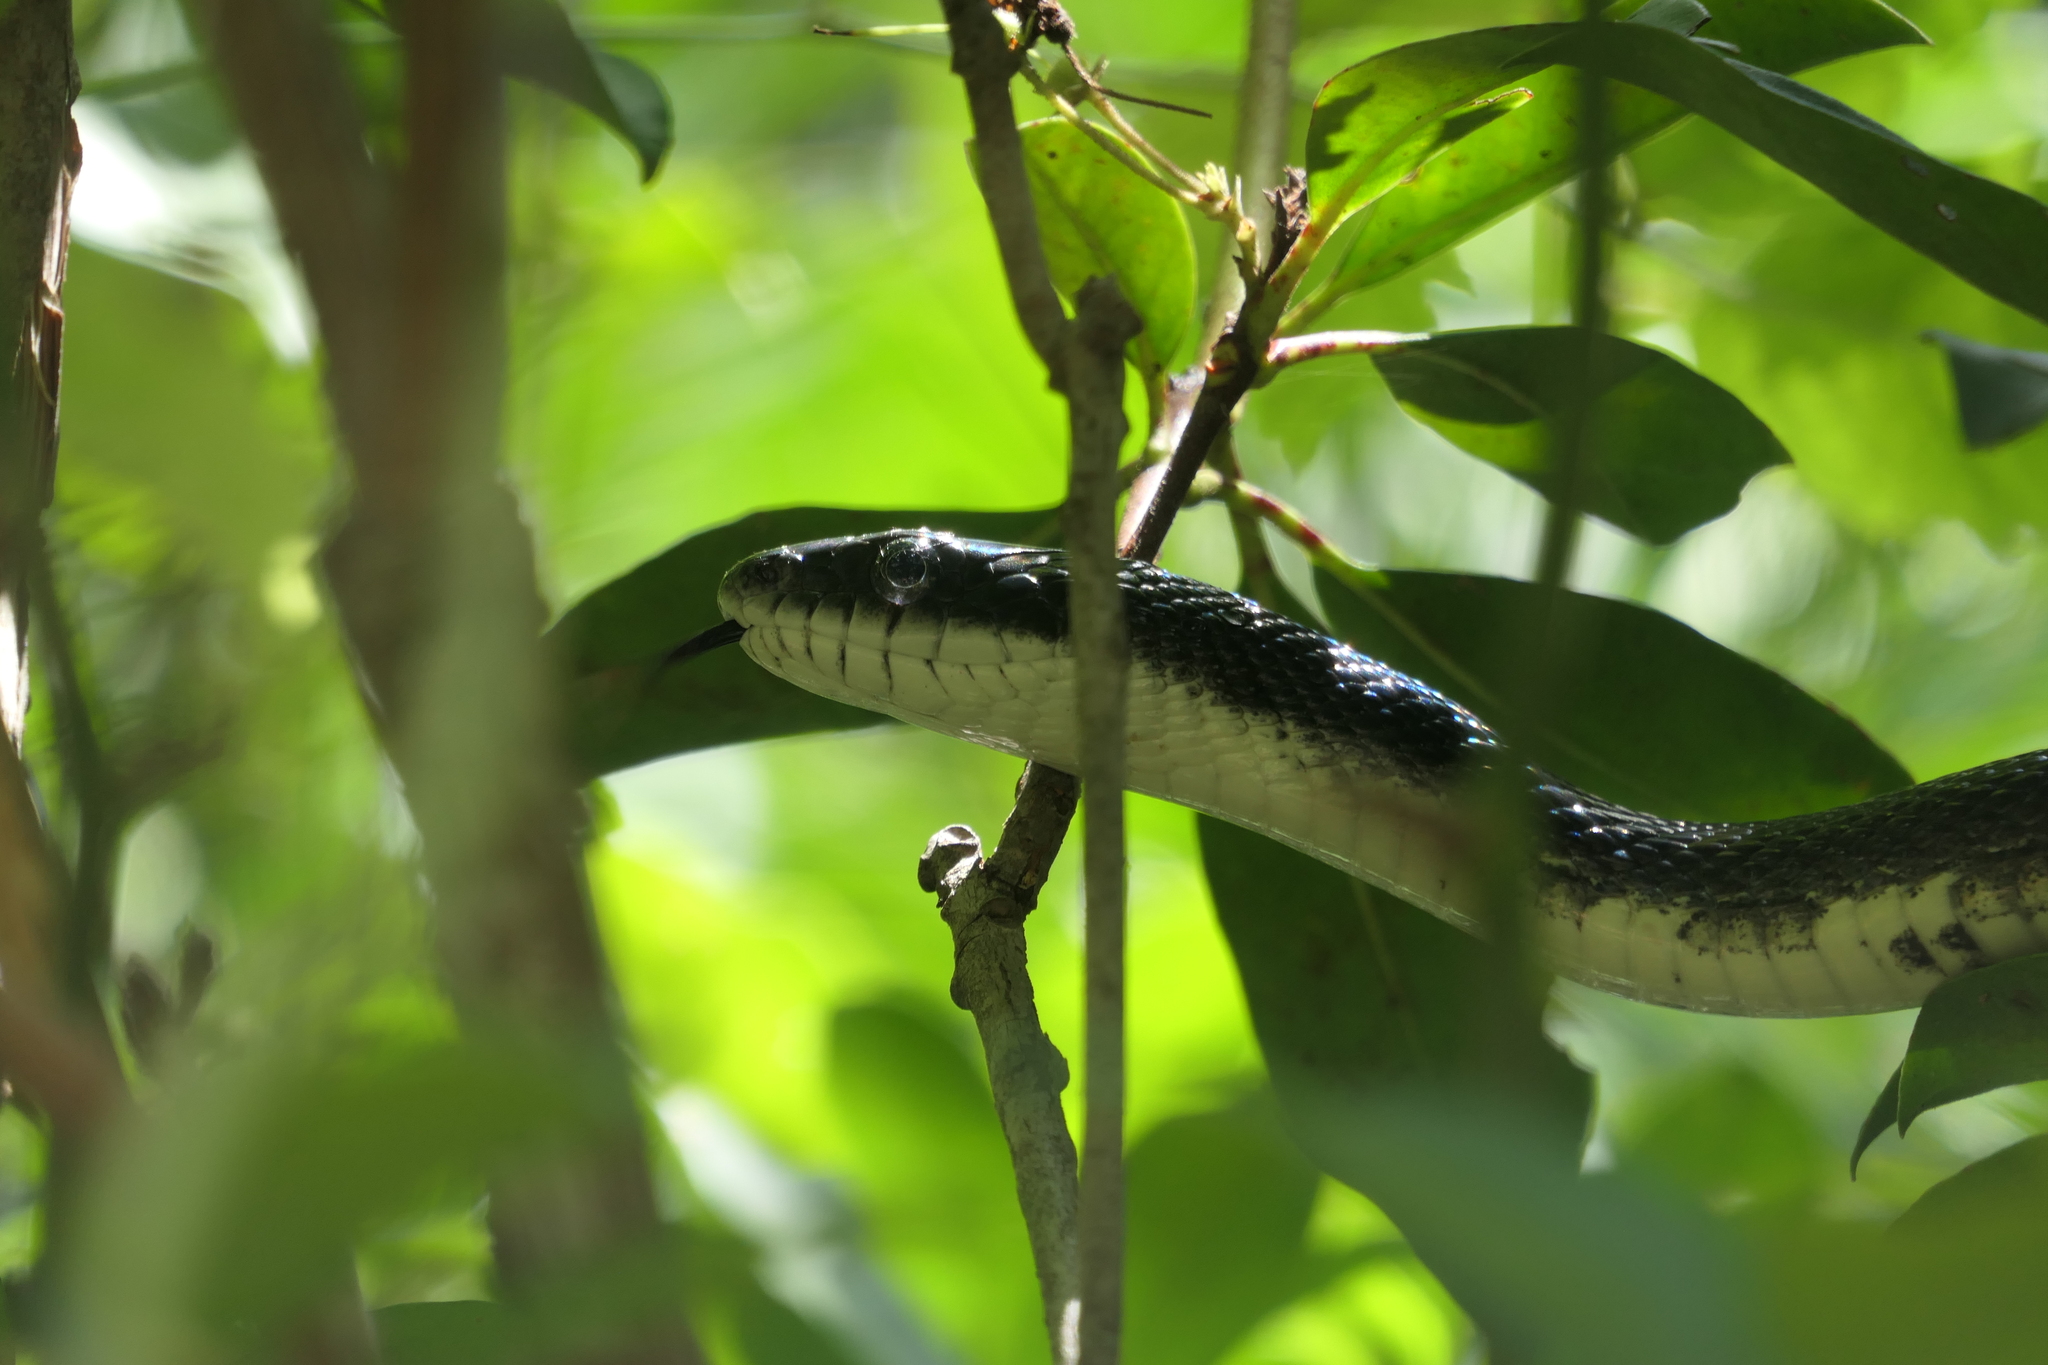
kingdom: Animalia
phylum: Chordata
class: Squamata
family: Colubridae
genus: Pantherophis
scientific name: Pantherophis alleghaniensis
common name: Eastern rat snake
